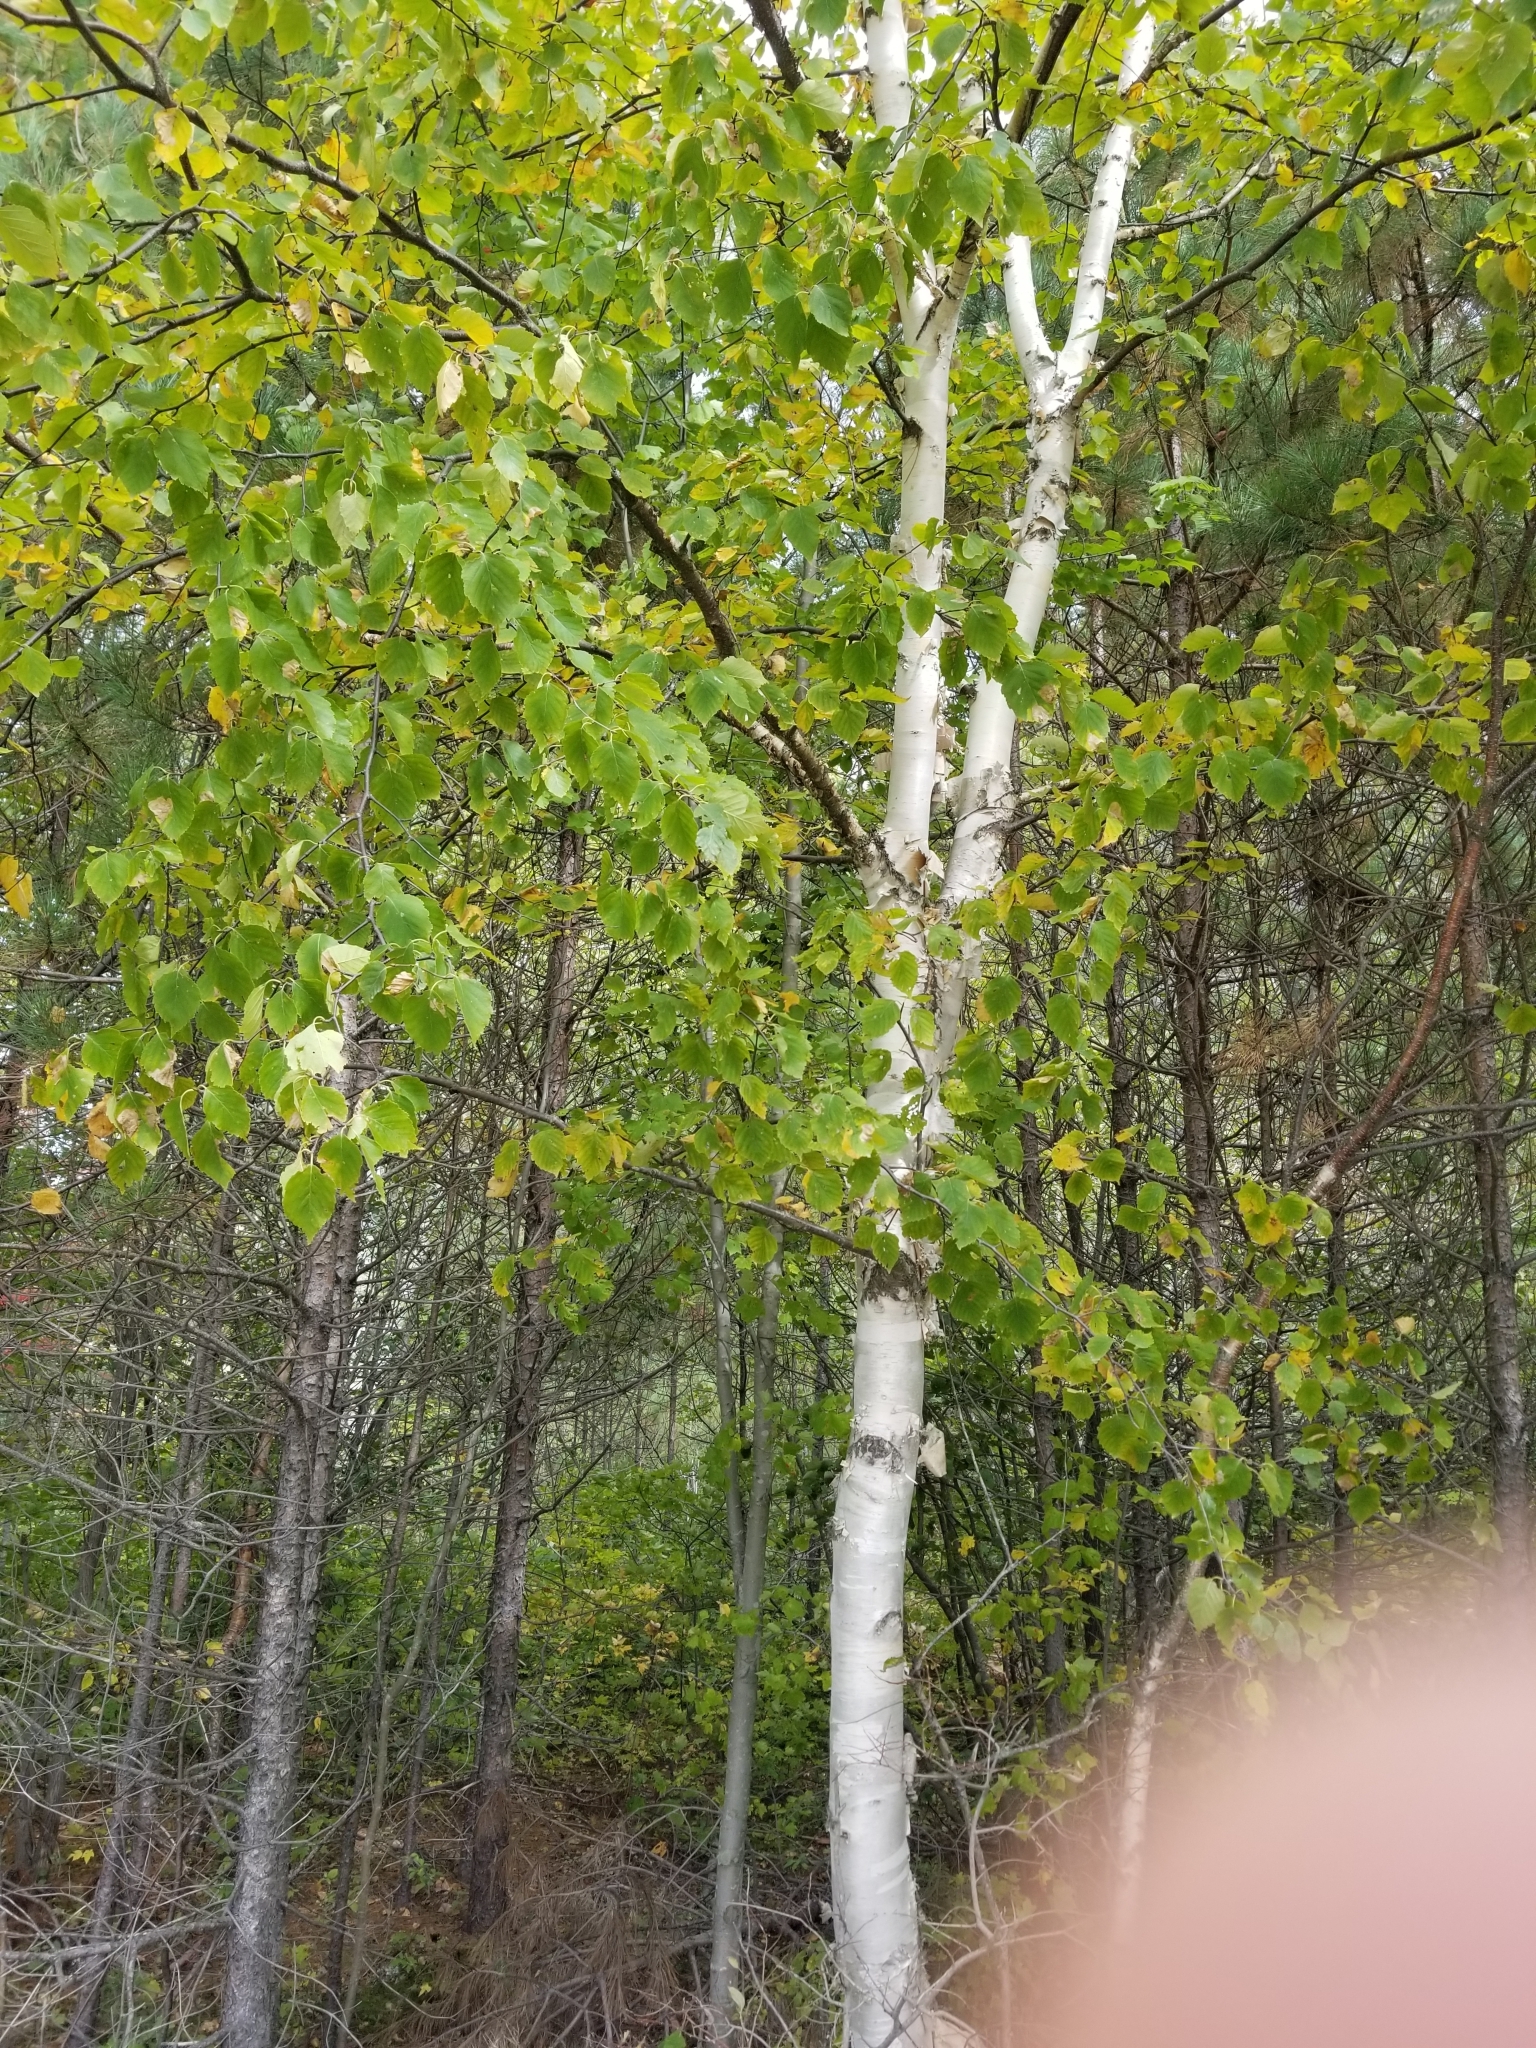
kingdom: Plantae
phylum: Tracheophyta
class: Magnoliopsida
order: Fagales
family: Betulaceae
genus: Betula
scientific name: Betula papyrifera
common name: Paper birch
